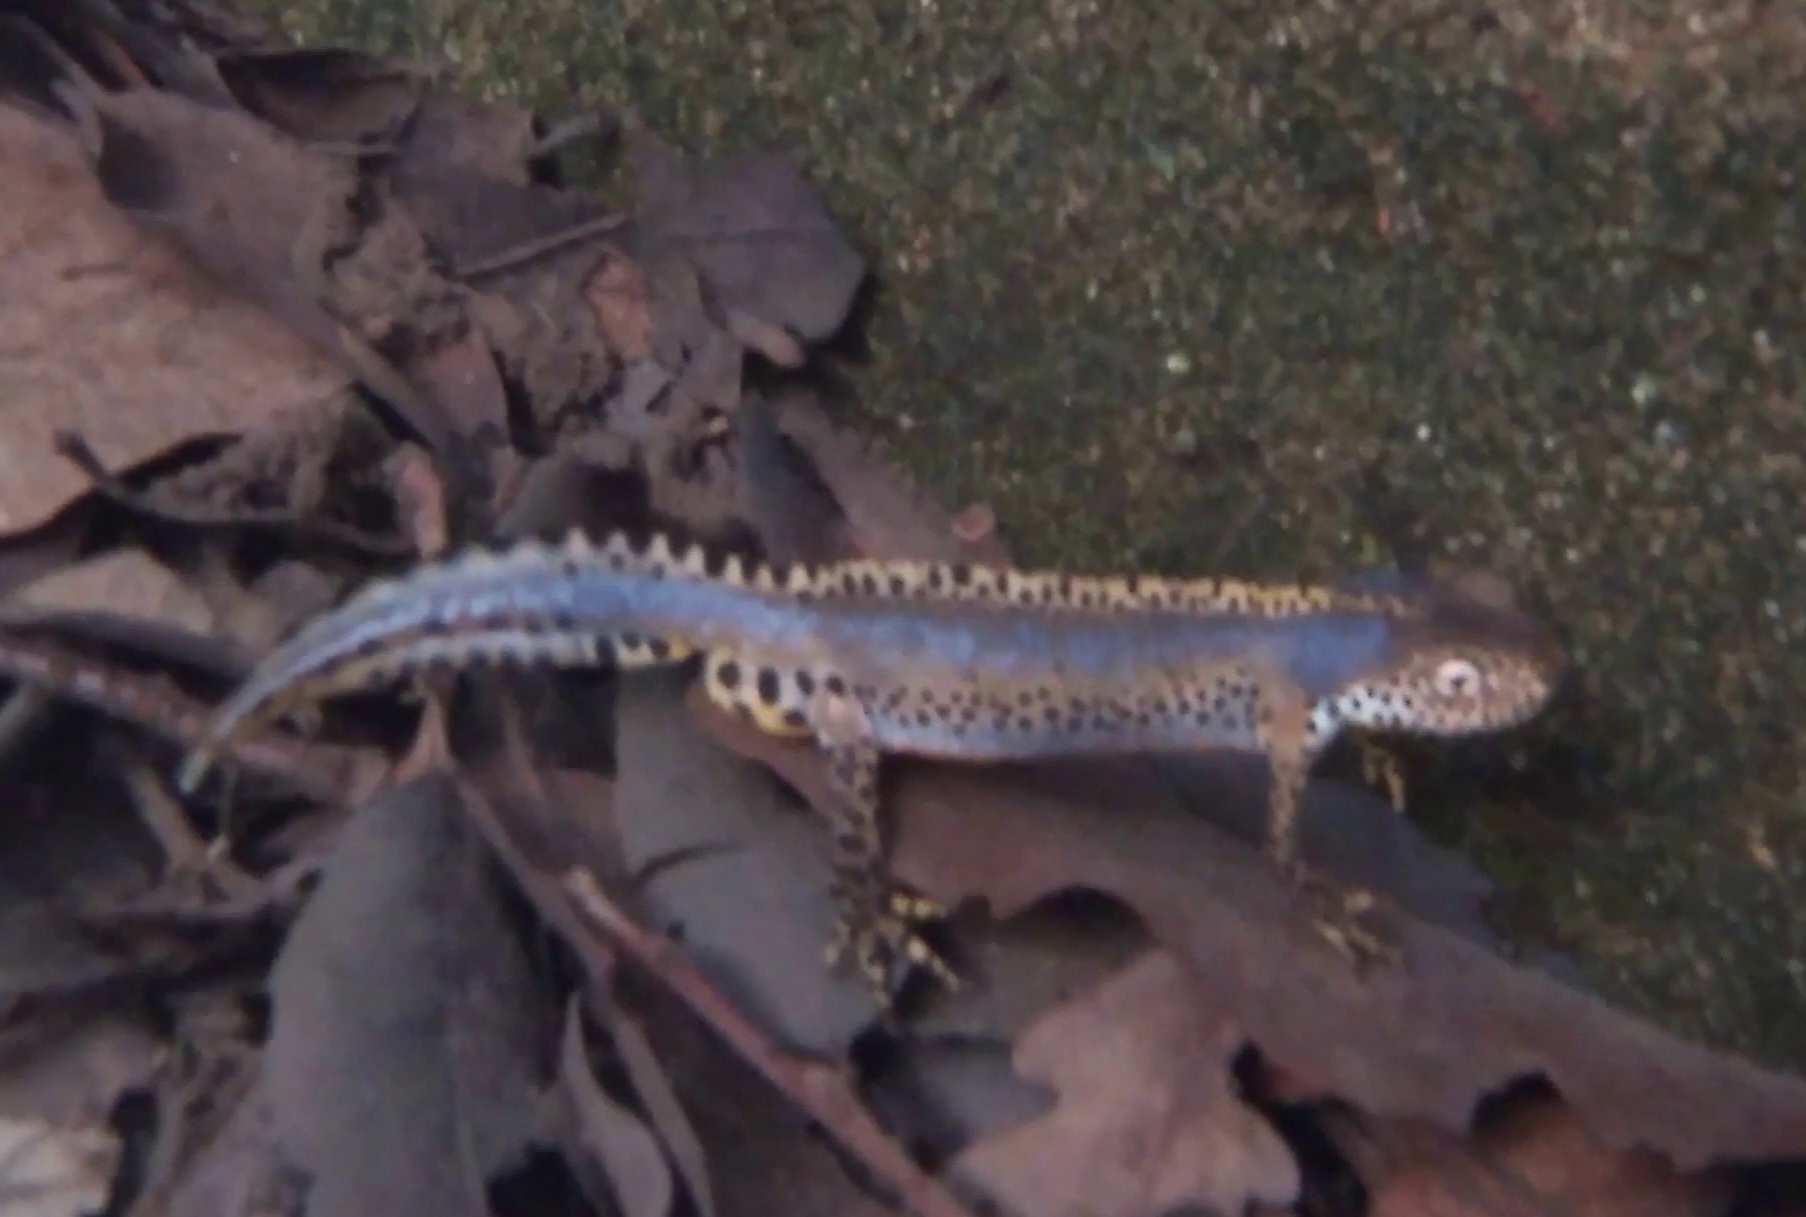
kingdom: Animalia
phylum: Chordata
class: Amphibia
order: Caudata
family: Salamandridae
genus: Ichthyosaura
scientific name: Ichthyosaura alpestris
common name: Alpine newt
